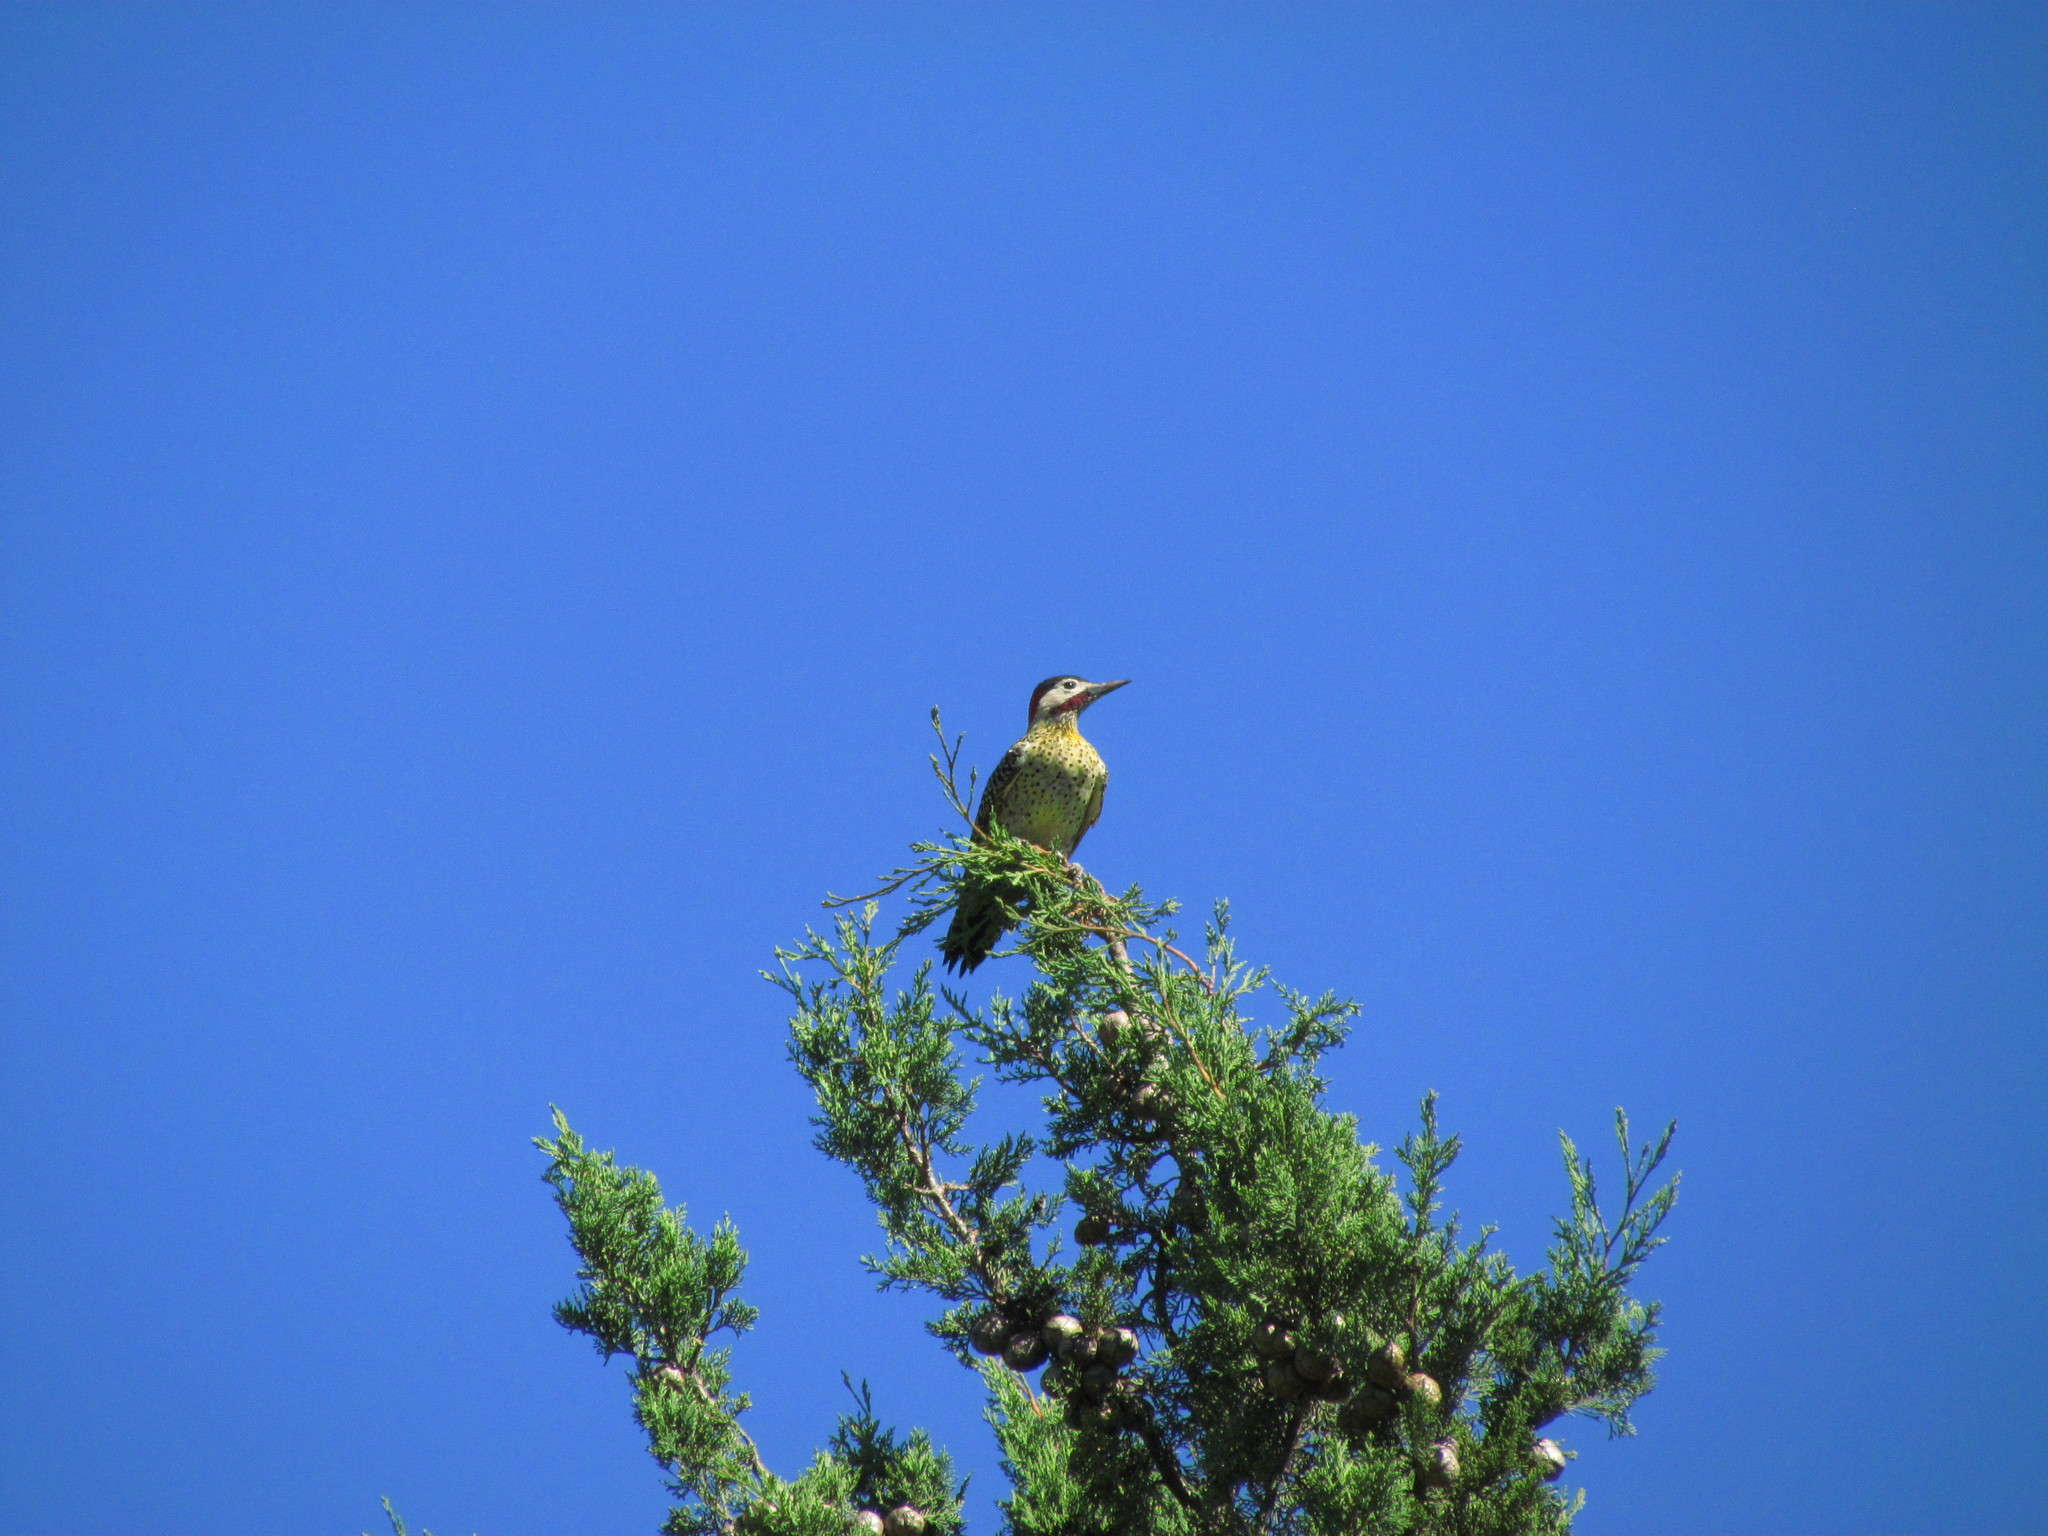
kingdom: Animalia
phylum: Chordata
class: Aves
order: Piciformes
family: Picidae
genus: Colaptes
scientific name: Colaptes melanochloros
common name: Green-barred woodpecker
